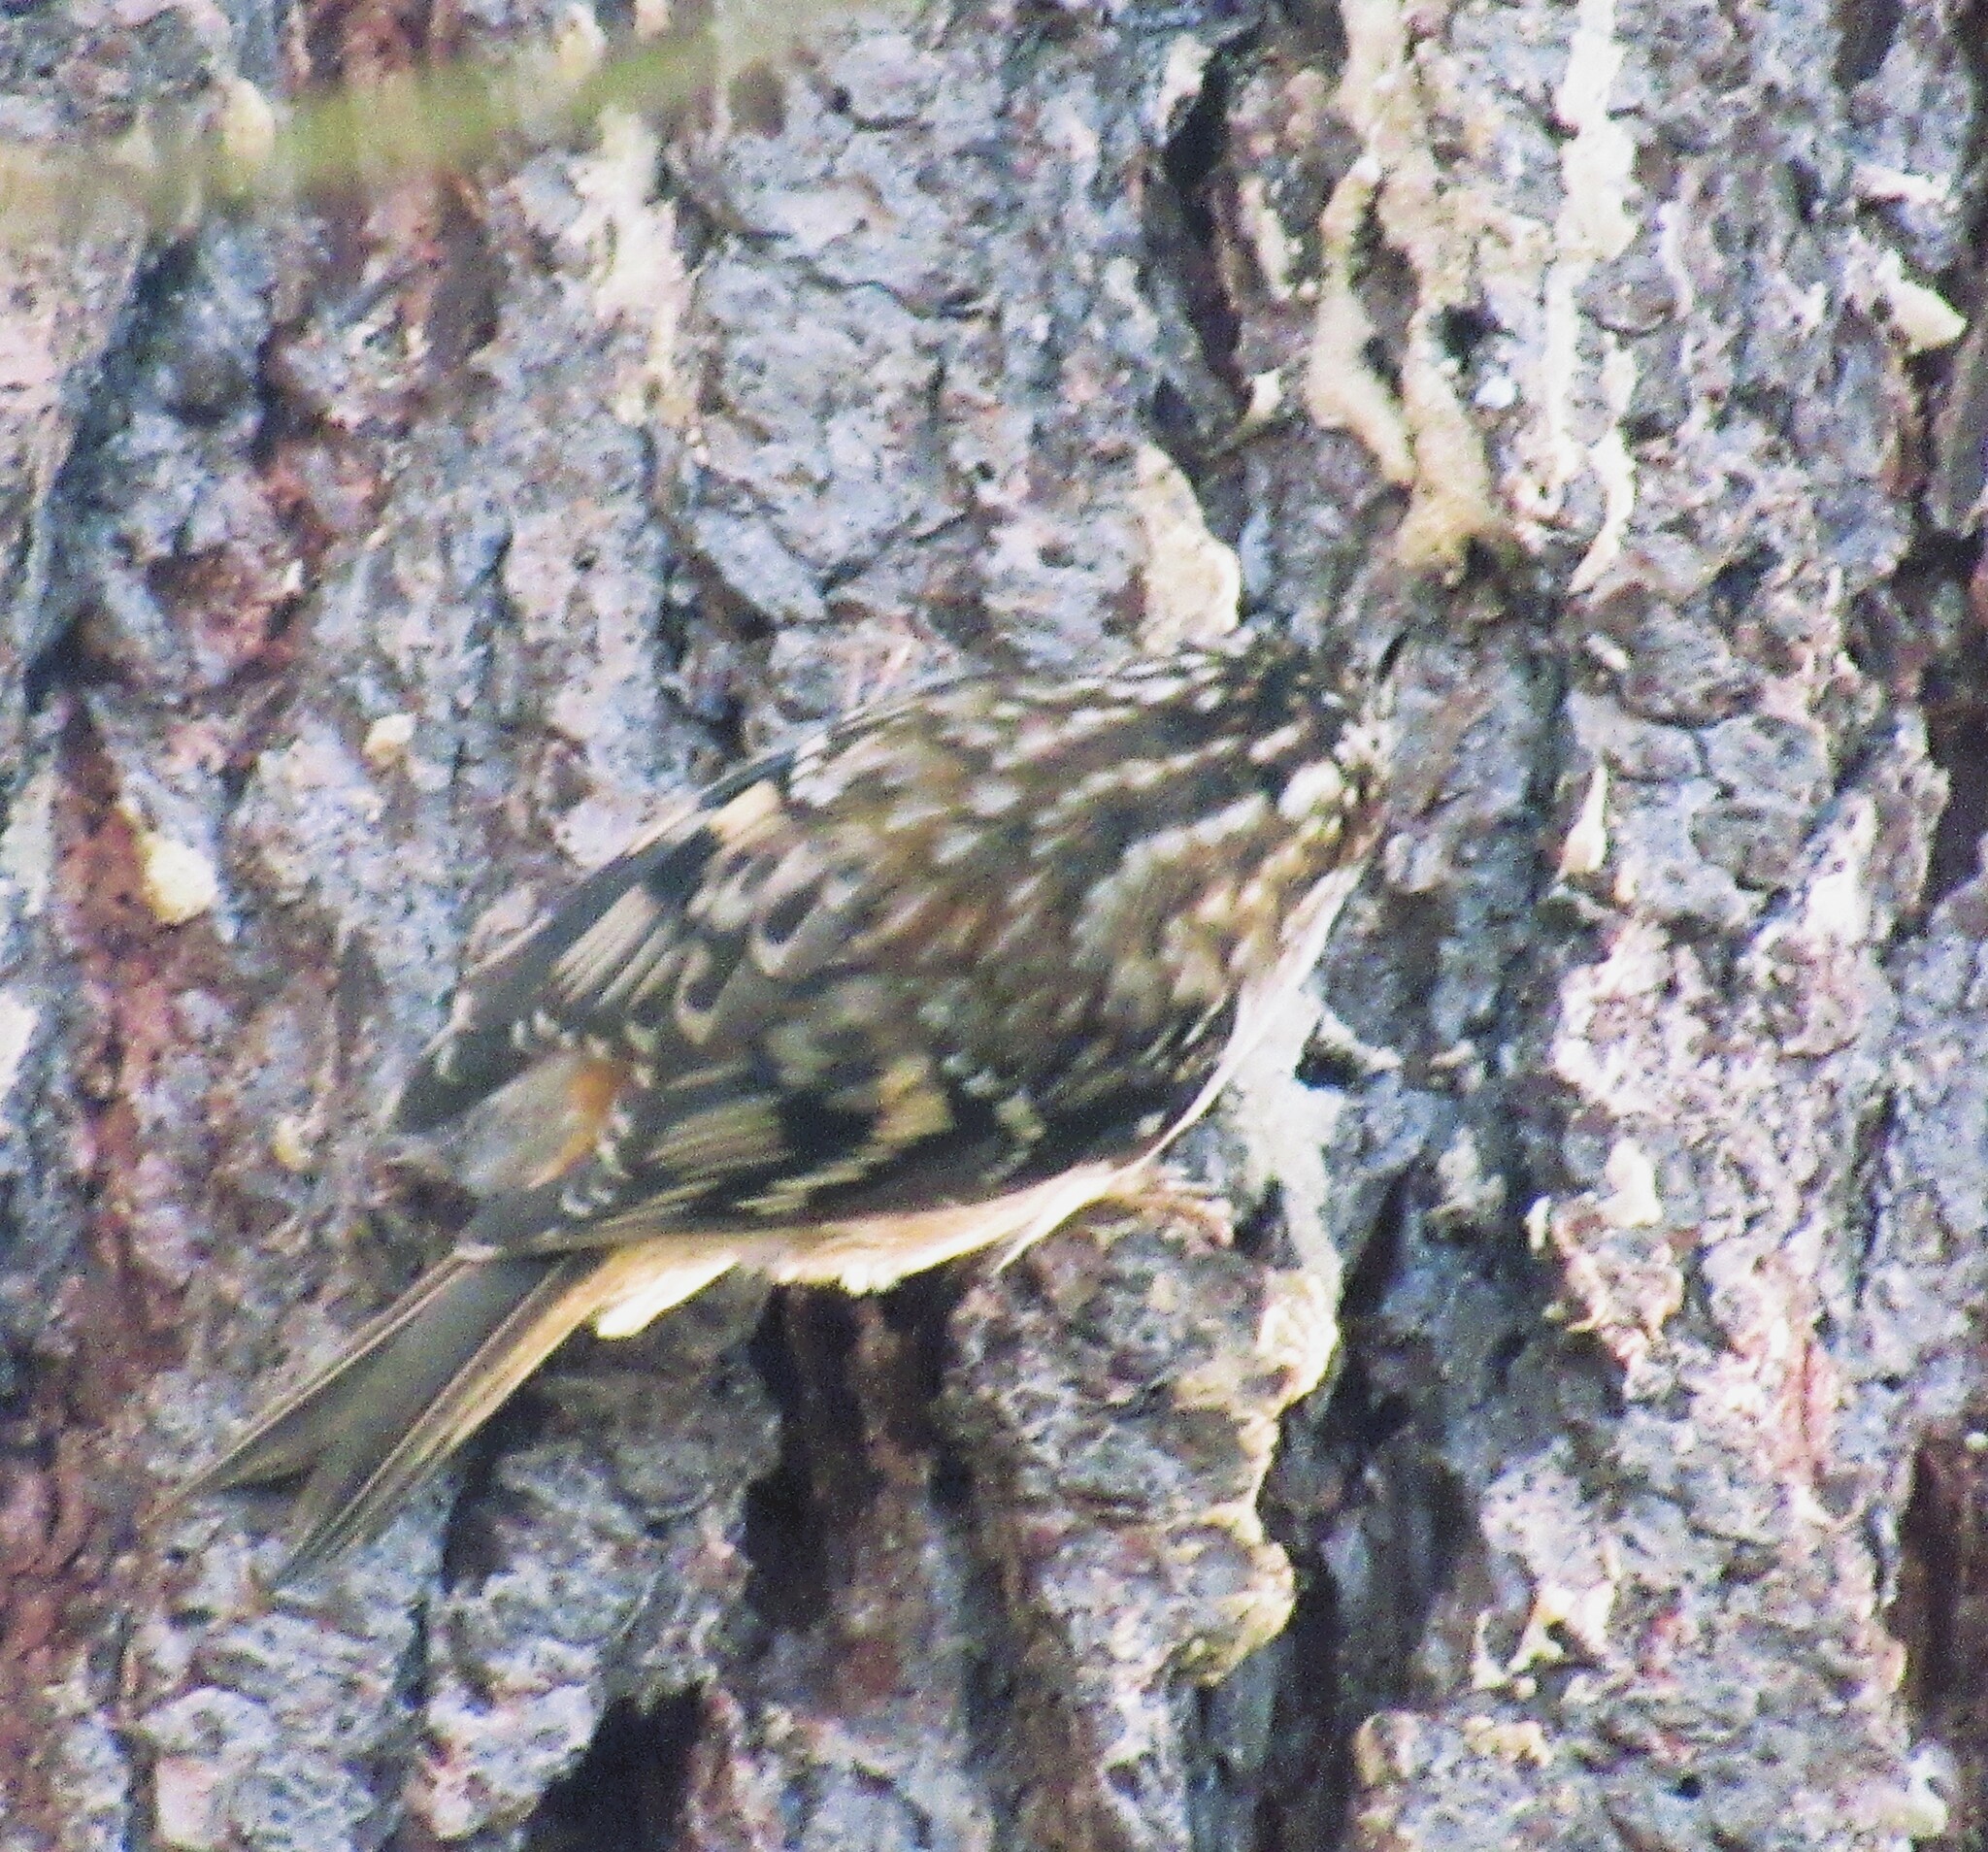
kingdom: Animalia
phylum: Chordata
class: Aves
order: Passeriformes
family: Certhiidae
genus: Certhia
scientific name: Certhia americana
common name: Brown creeper
